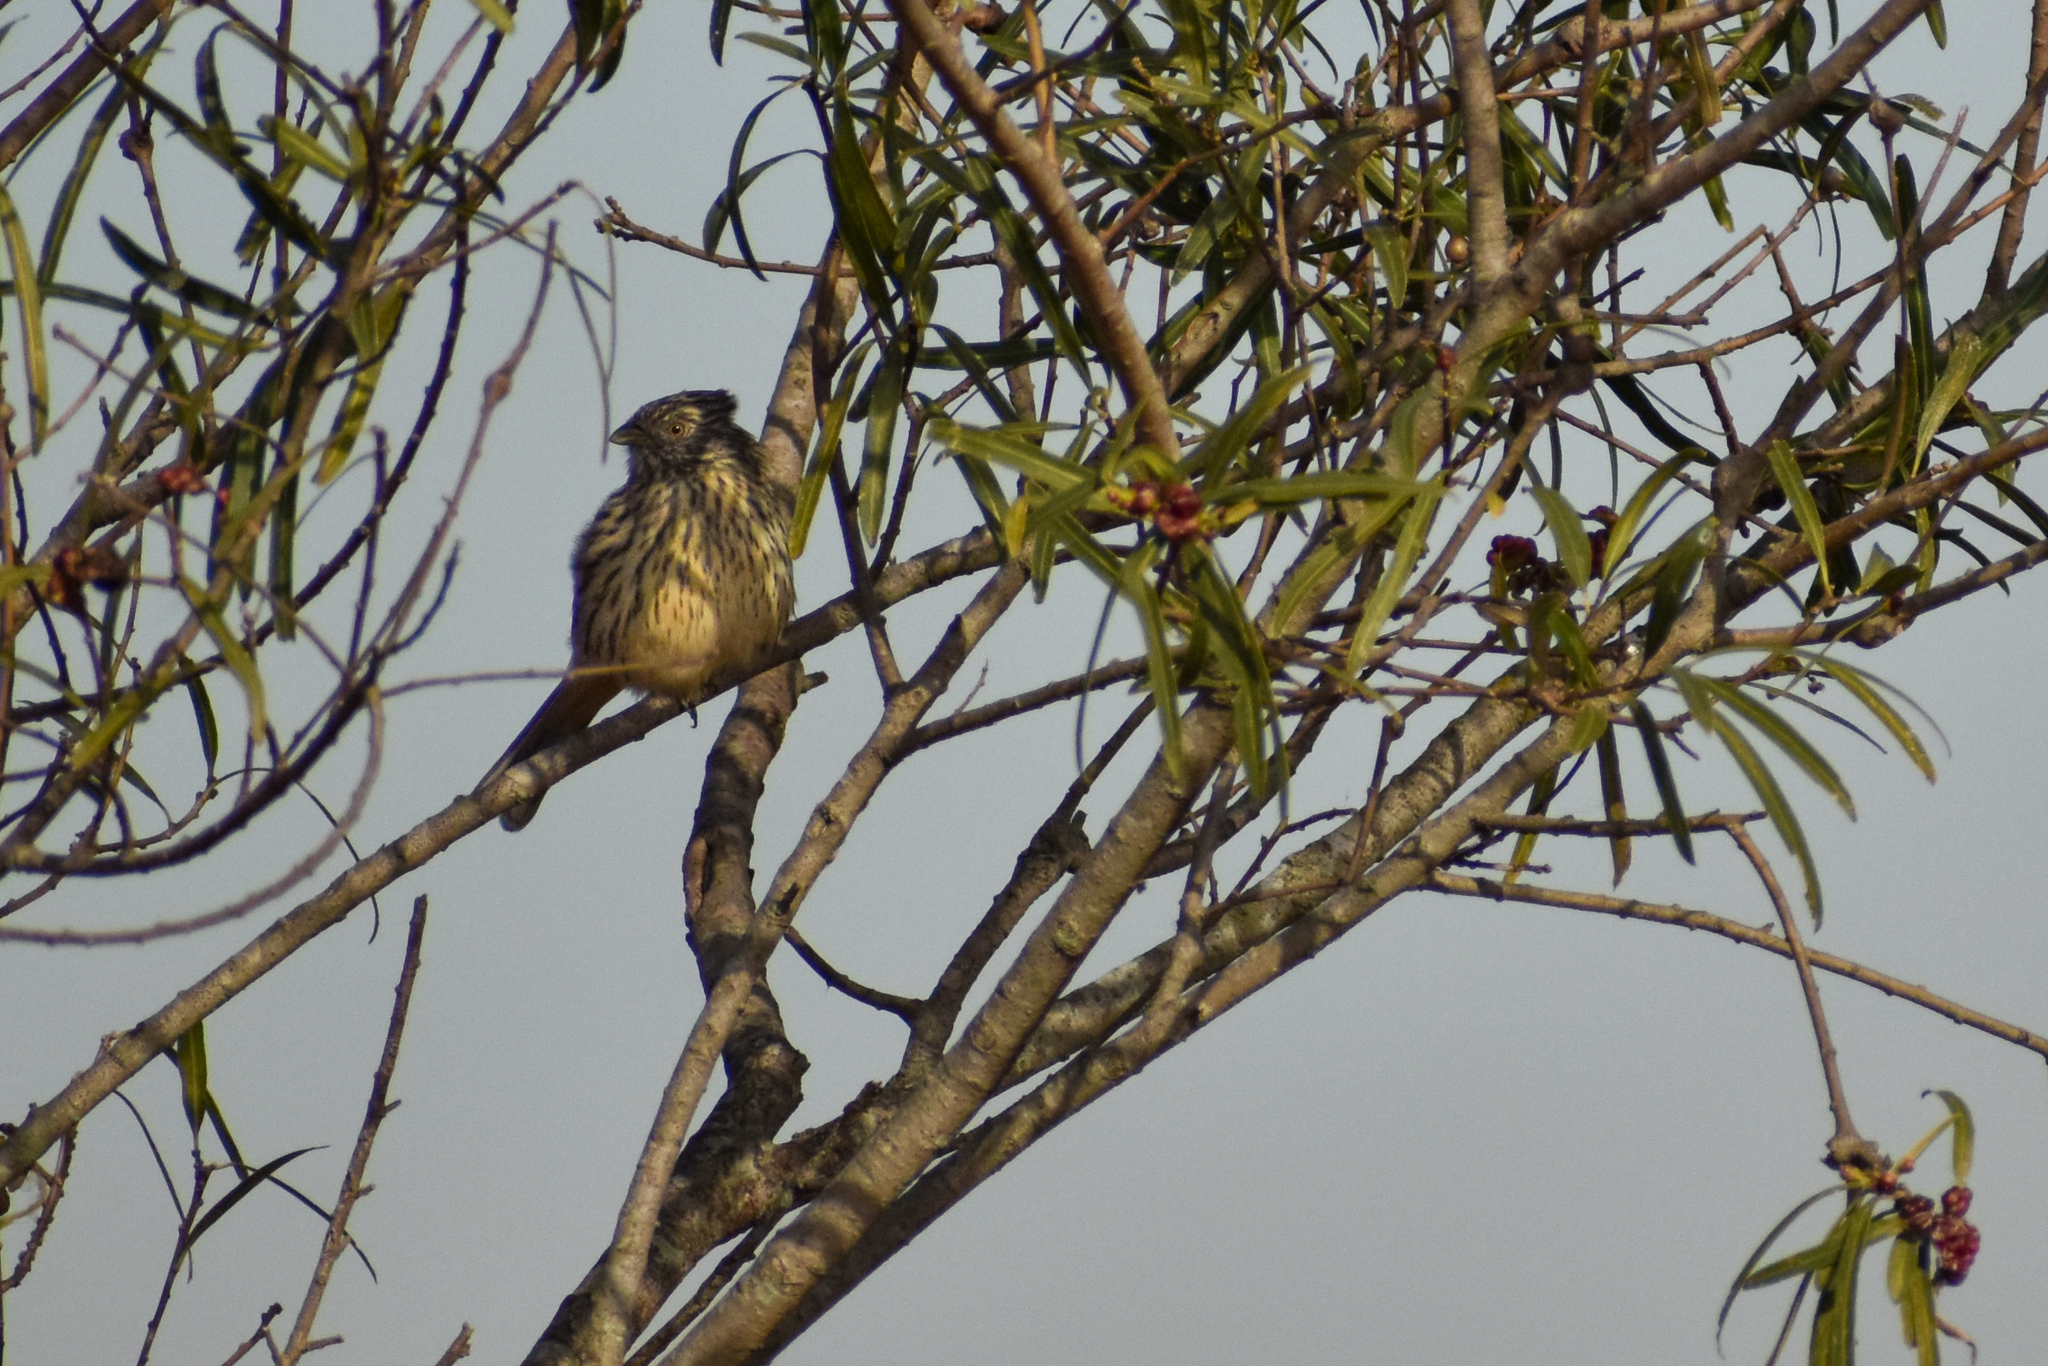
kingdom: Animalia
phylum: Chordata
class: Aves
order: Passeriformes
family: Cotingidae
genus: Phytotoma
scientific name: Phytotoma rutila
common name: White-tipped plantcutter
